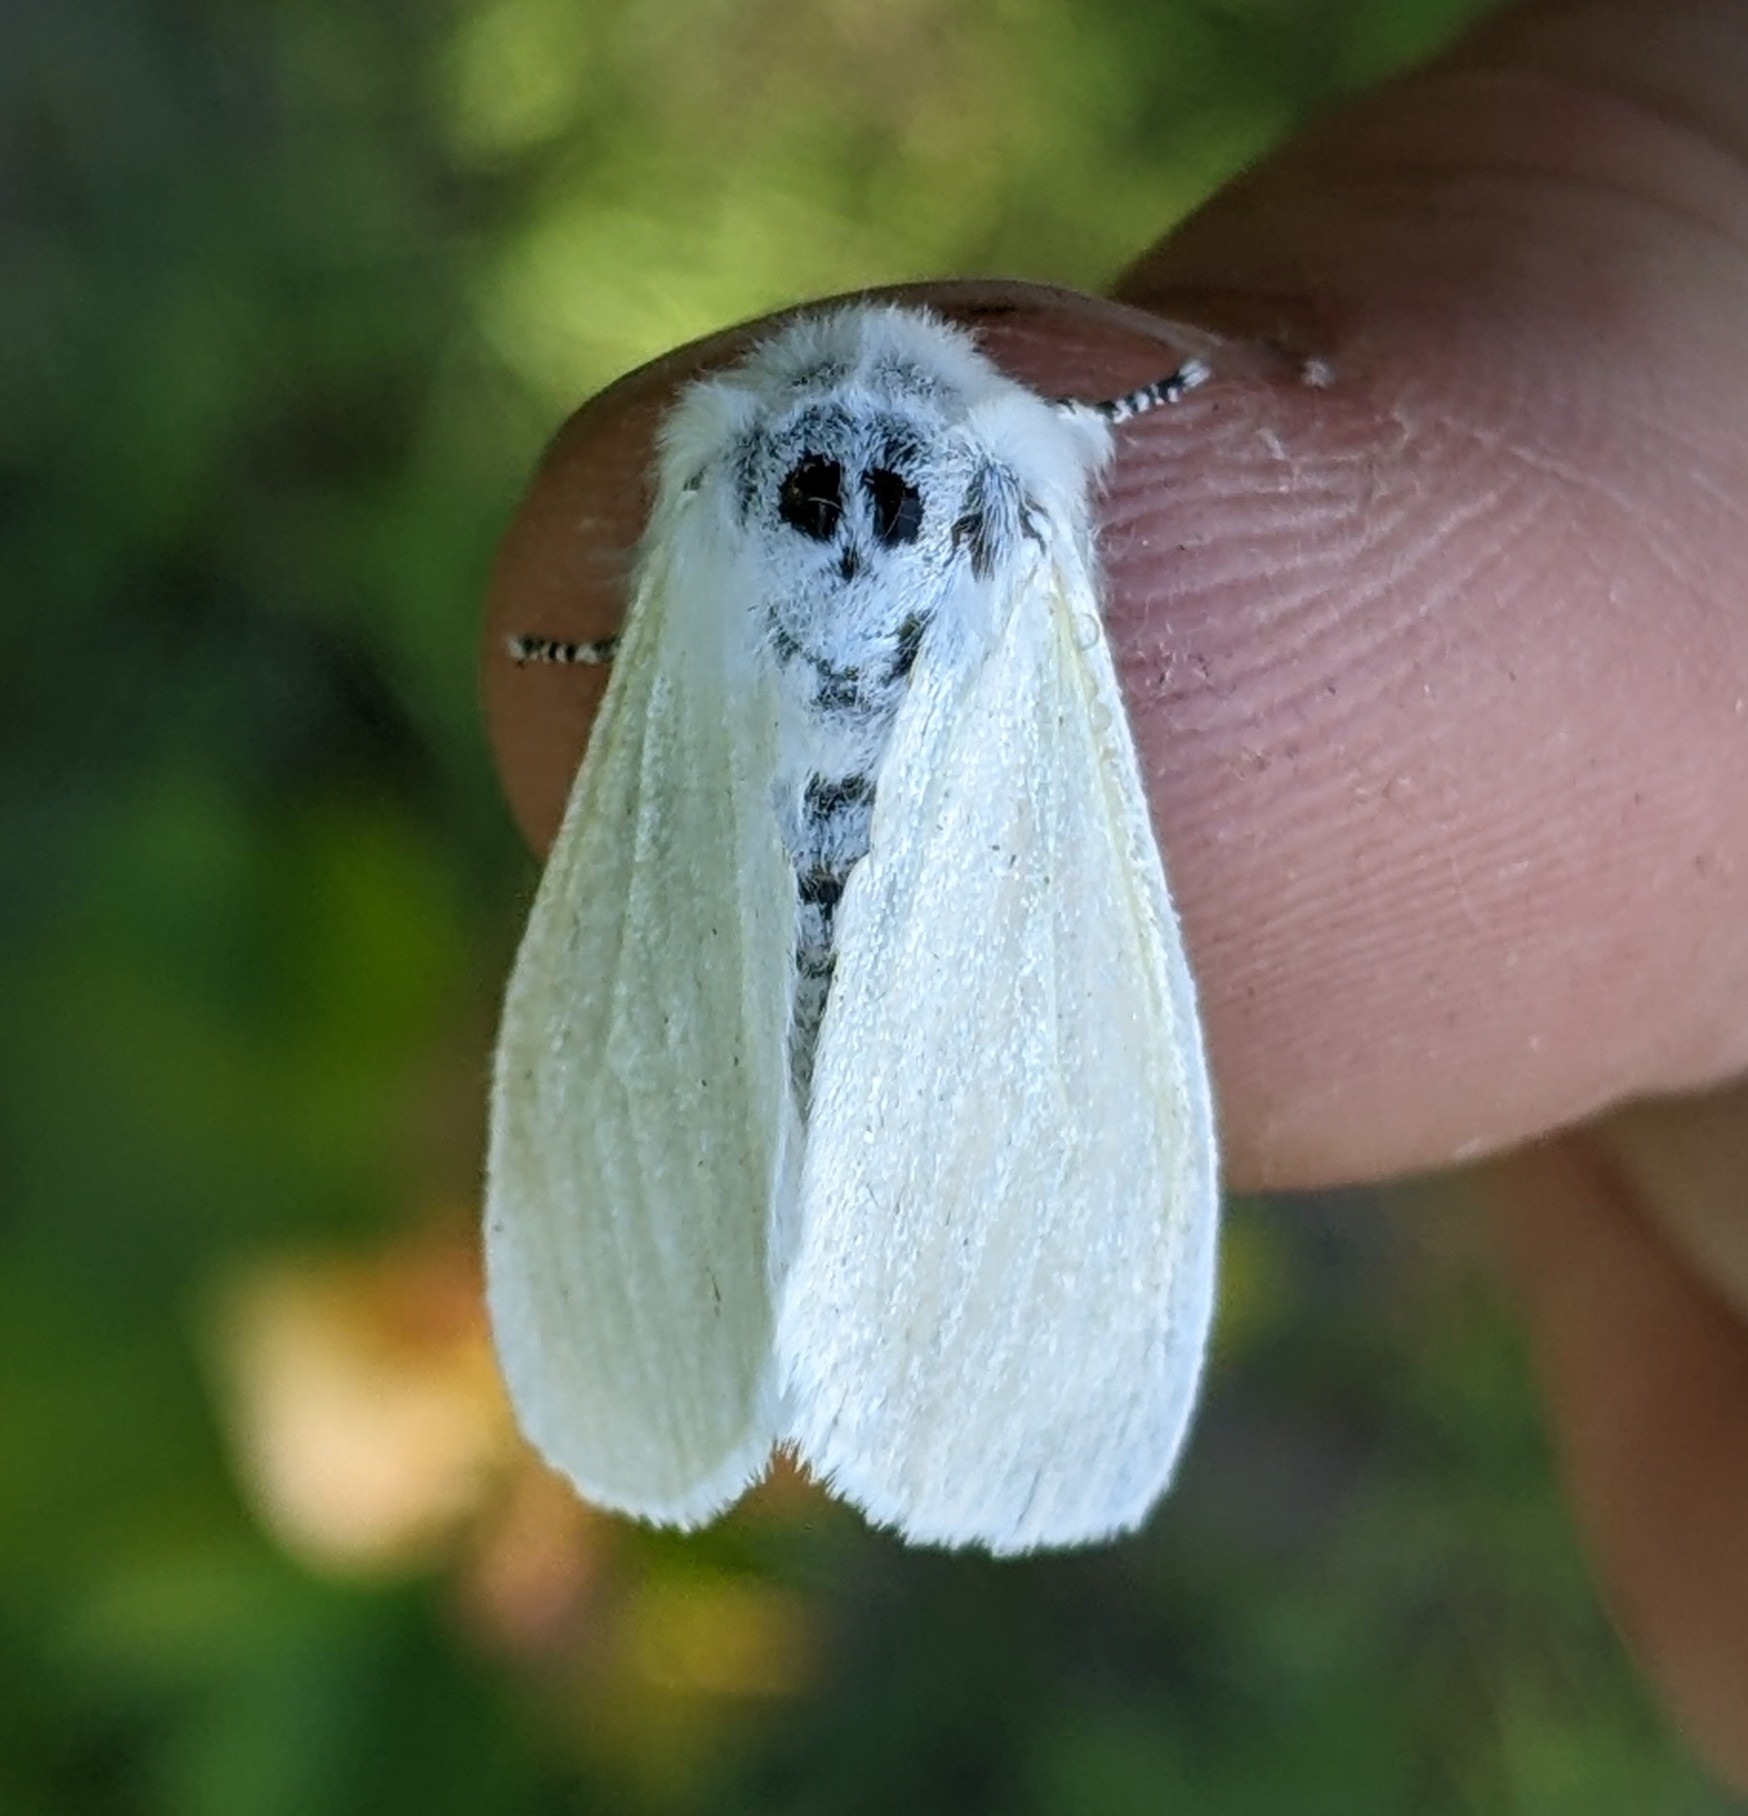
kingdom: Animalia
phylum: Arthropoda
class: Insecta
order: Lepidoptera
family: Erebidae
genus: Leucoma
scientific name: Leucoma salicis
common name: White satin moth
